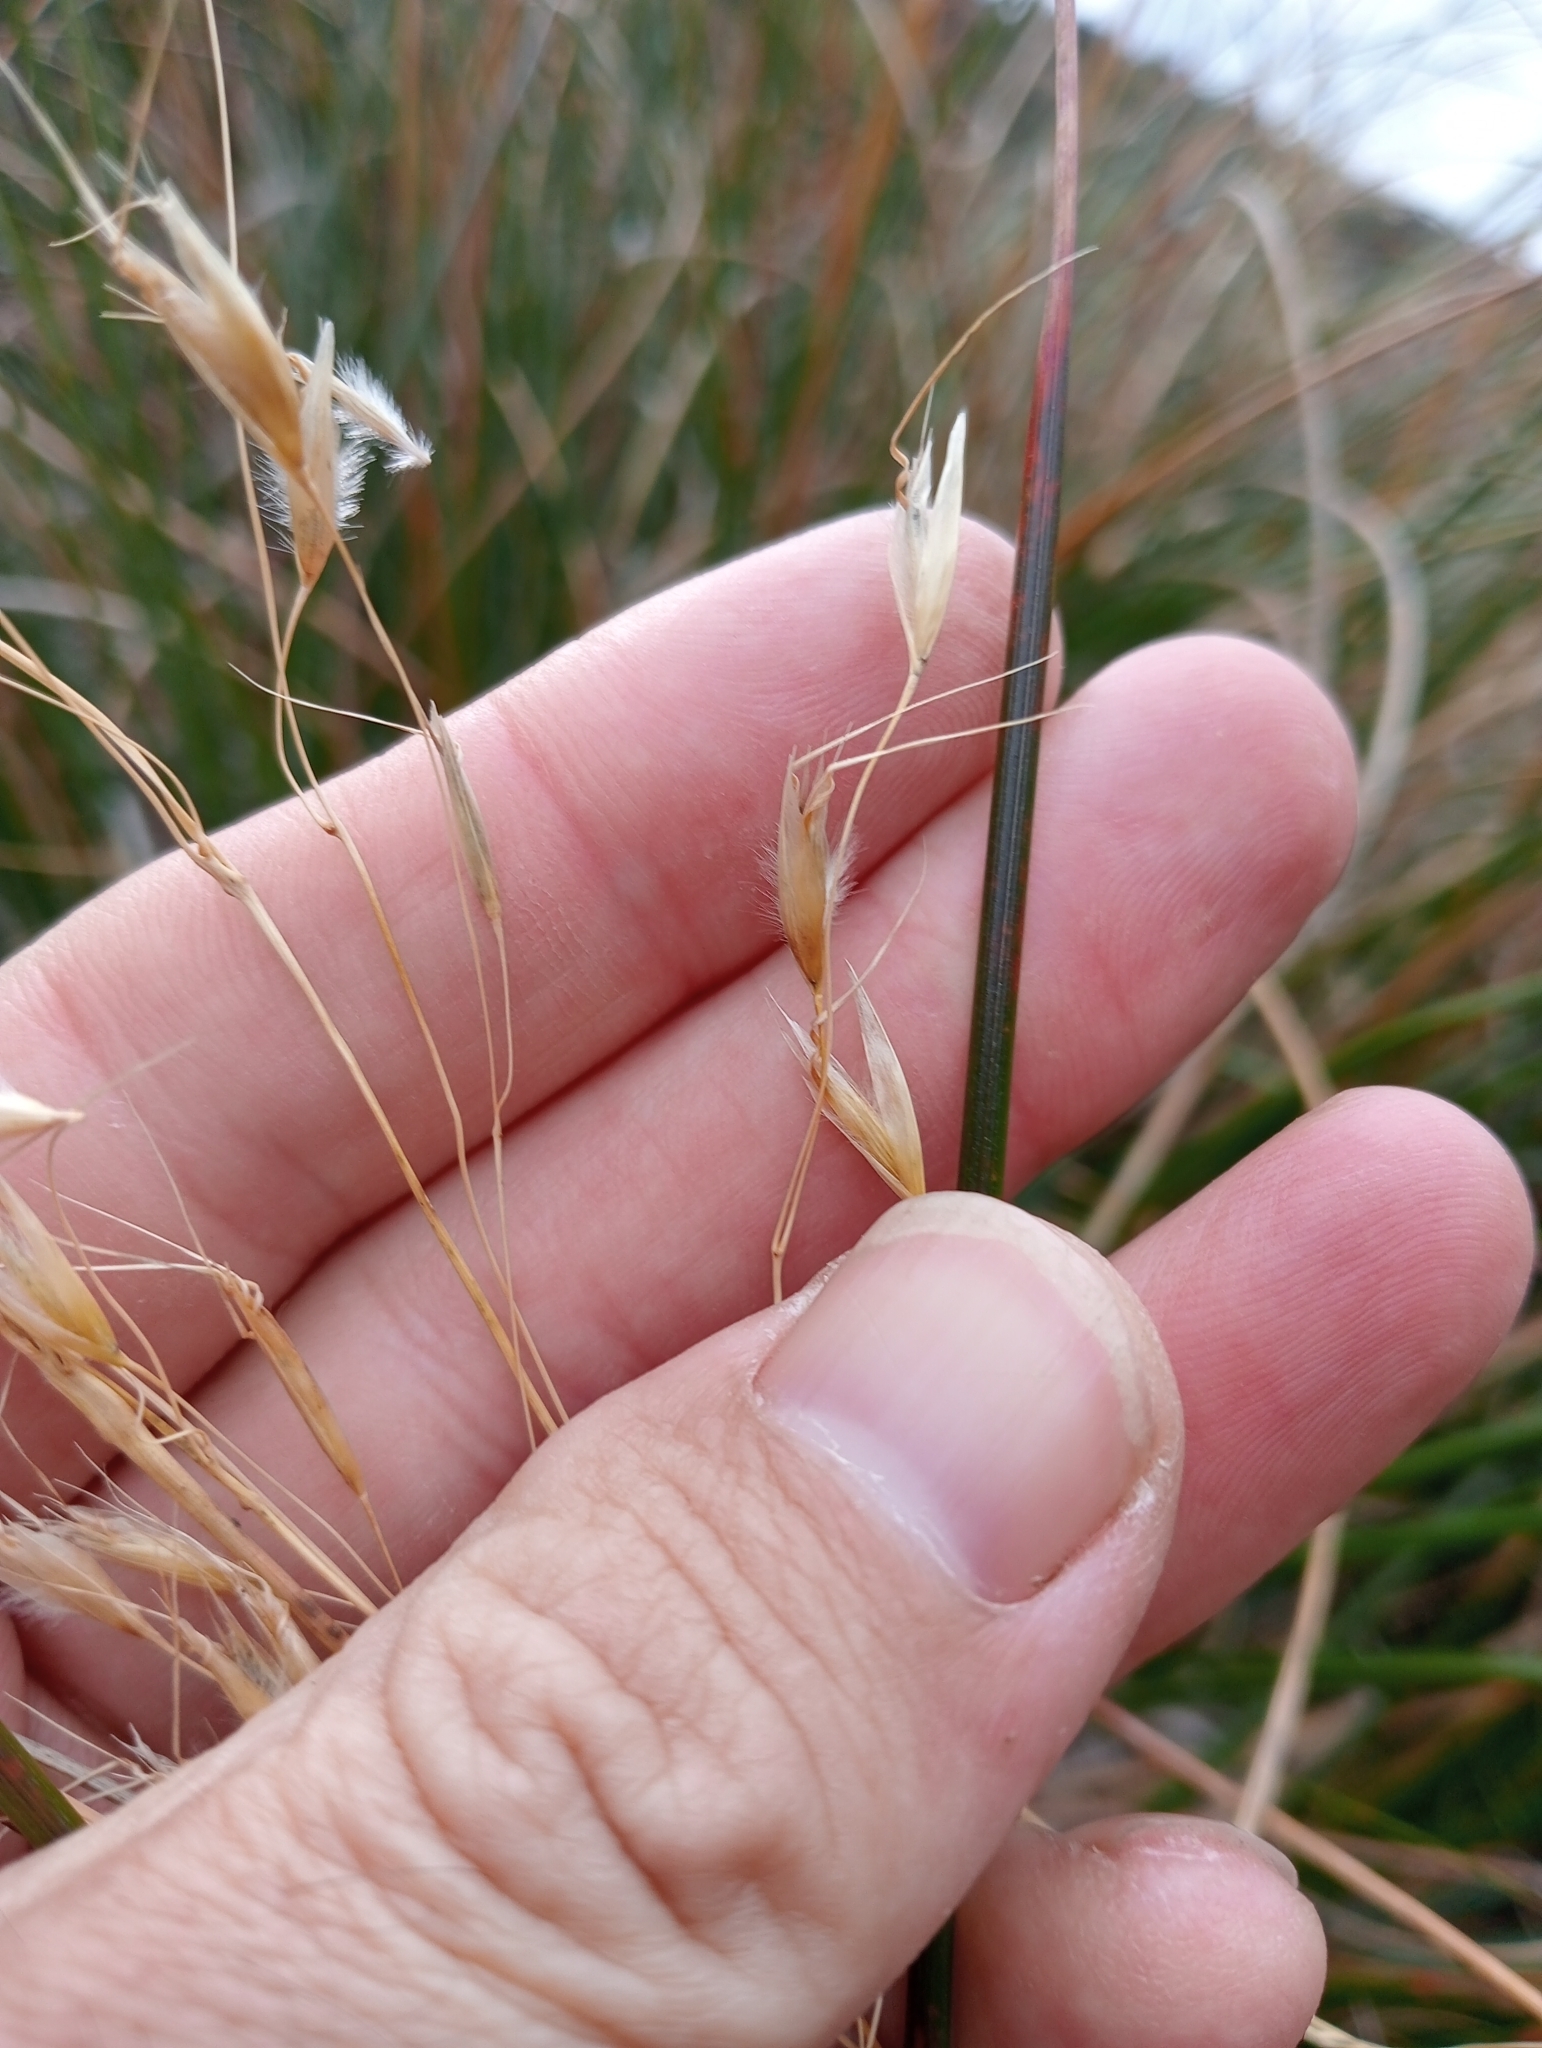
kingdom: Plantae
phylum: Tracheophyta
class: Liliopsida
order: Poales
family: Poaceae
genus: Chionochloa
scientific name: Chionochloa flavescens
